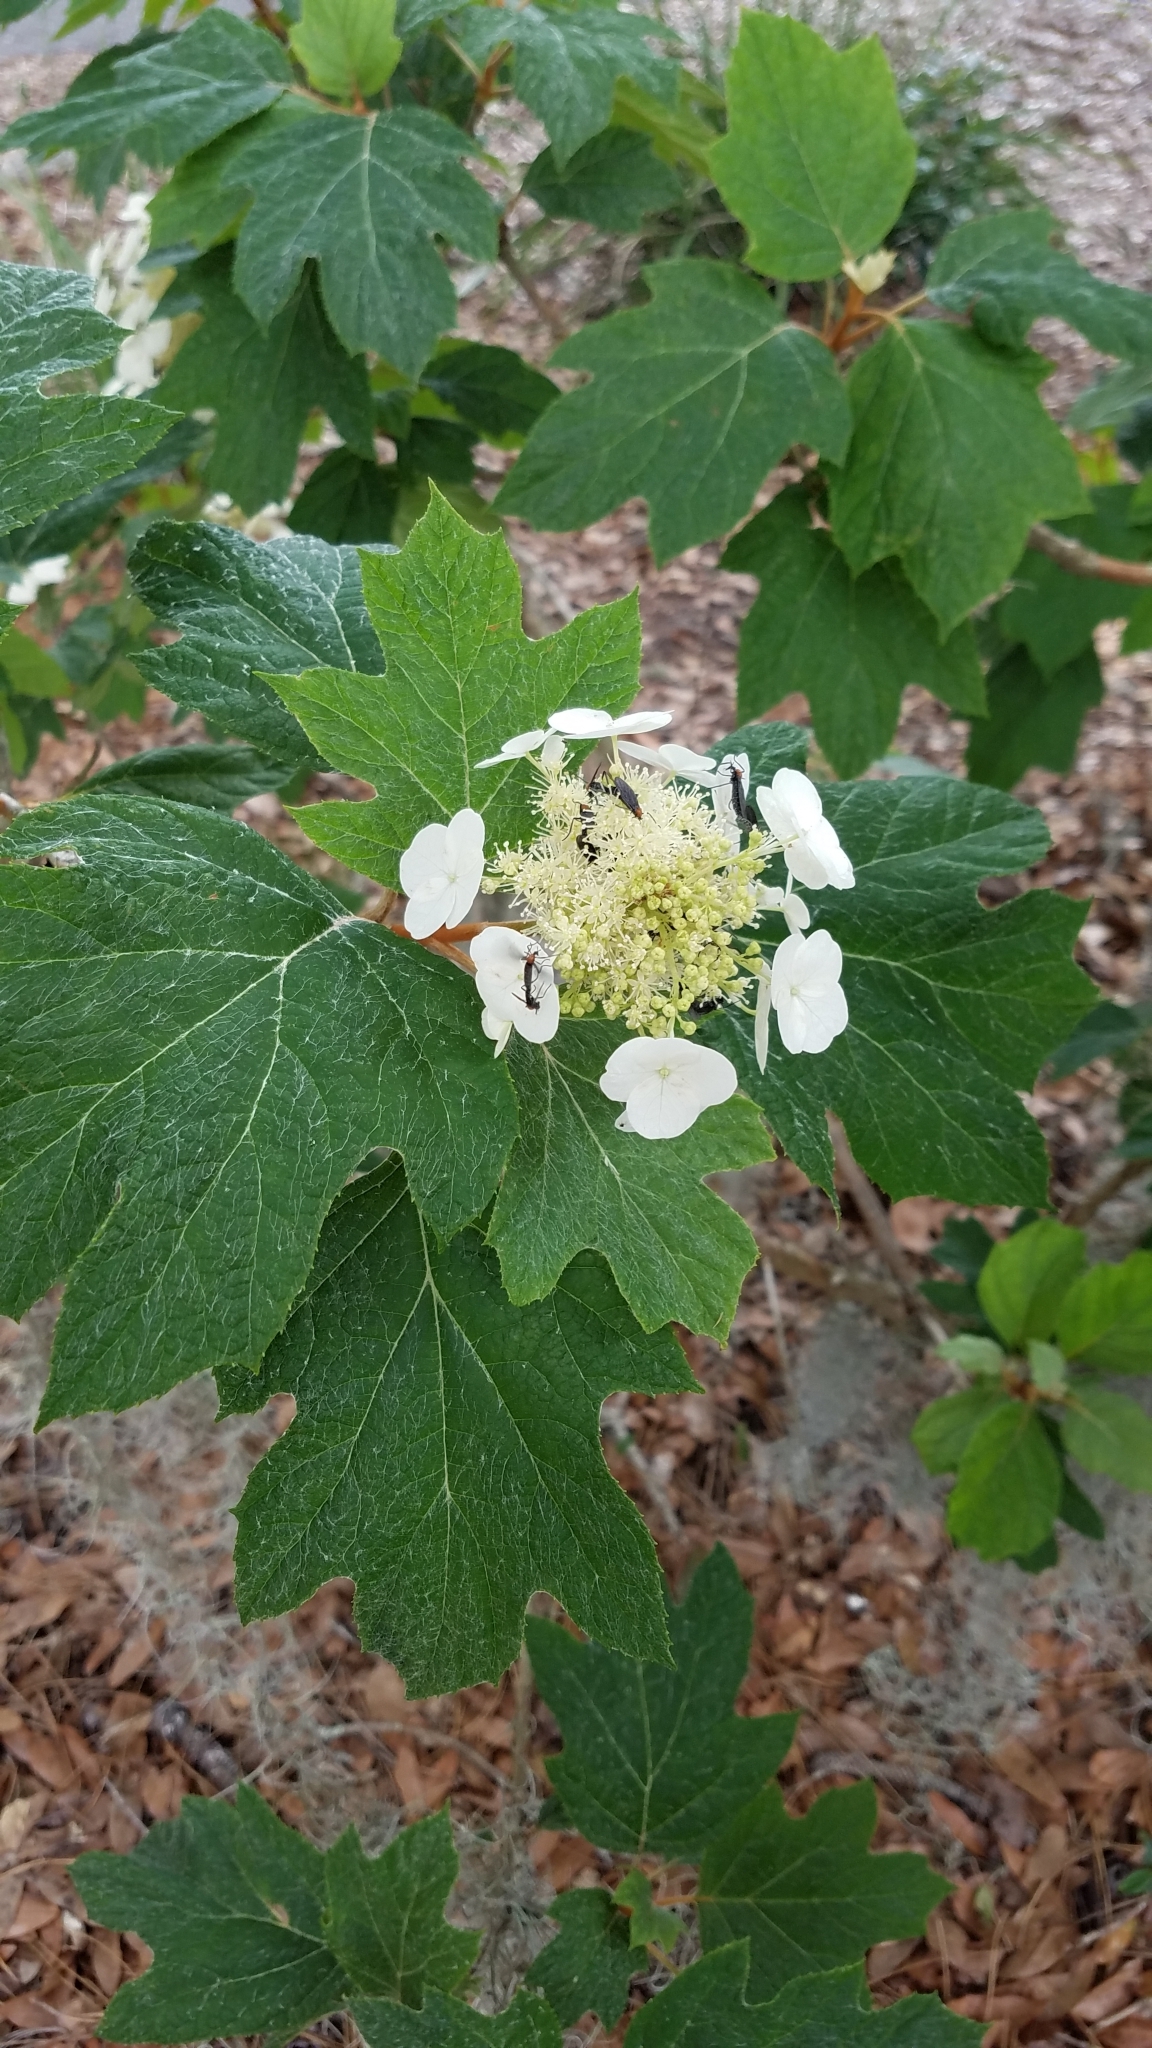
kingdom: Plantae
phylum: Tracheophyta
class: Magnoliopsida
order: Cornales
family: Hydrangeaceae
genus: Hydrangea
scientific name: Hydrangea quercifolia
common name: Oak-leaf hydrangea
